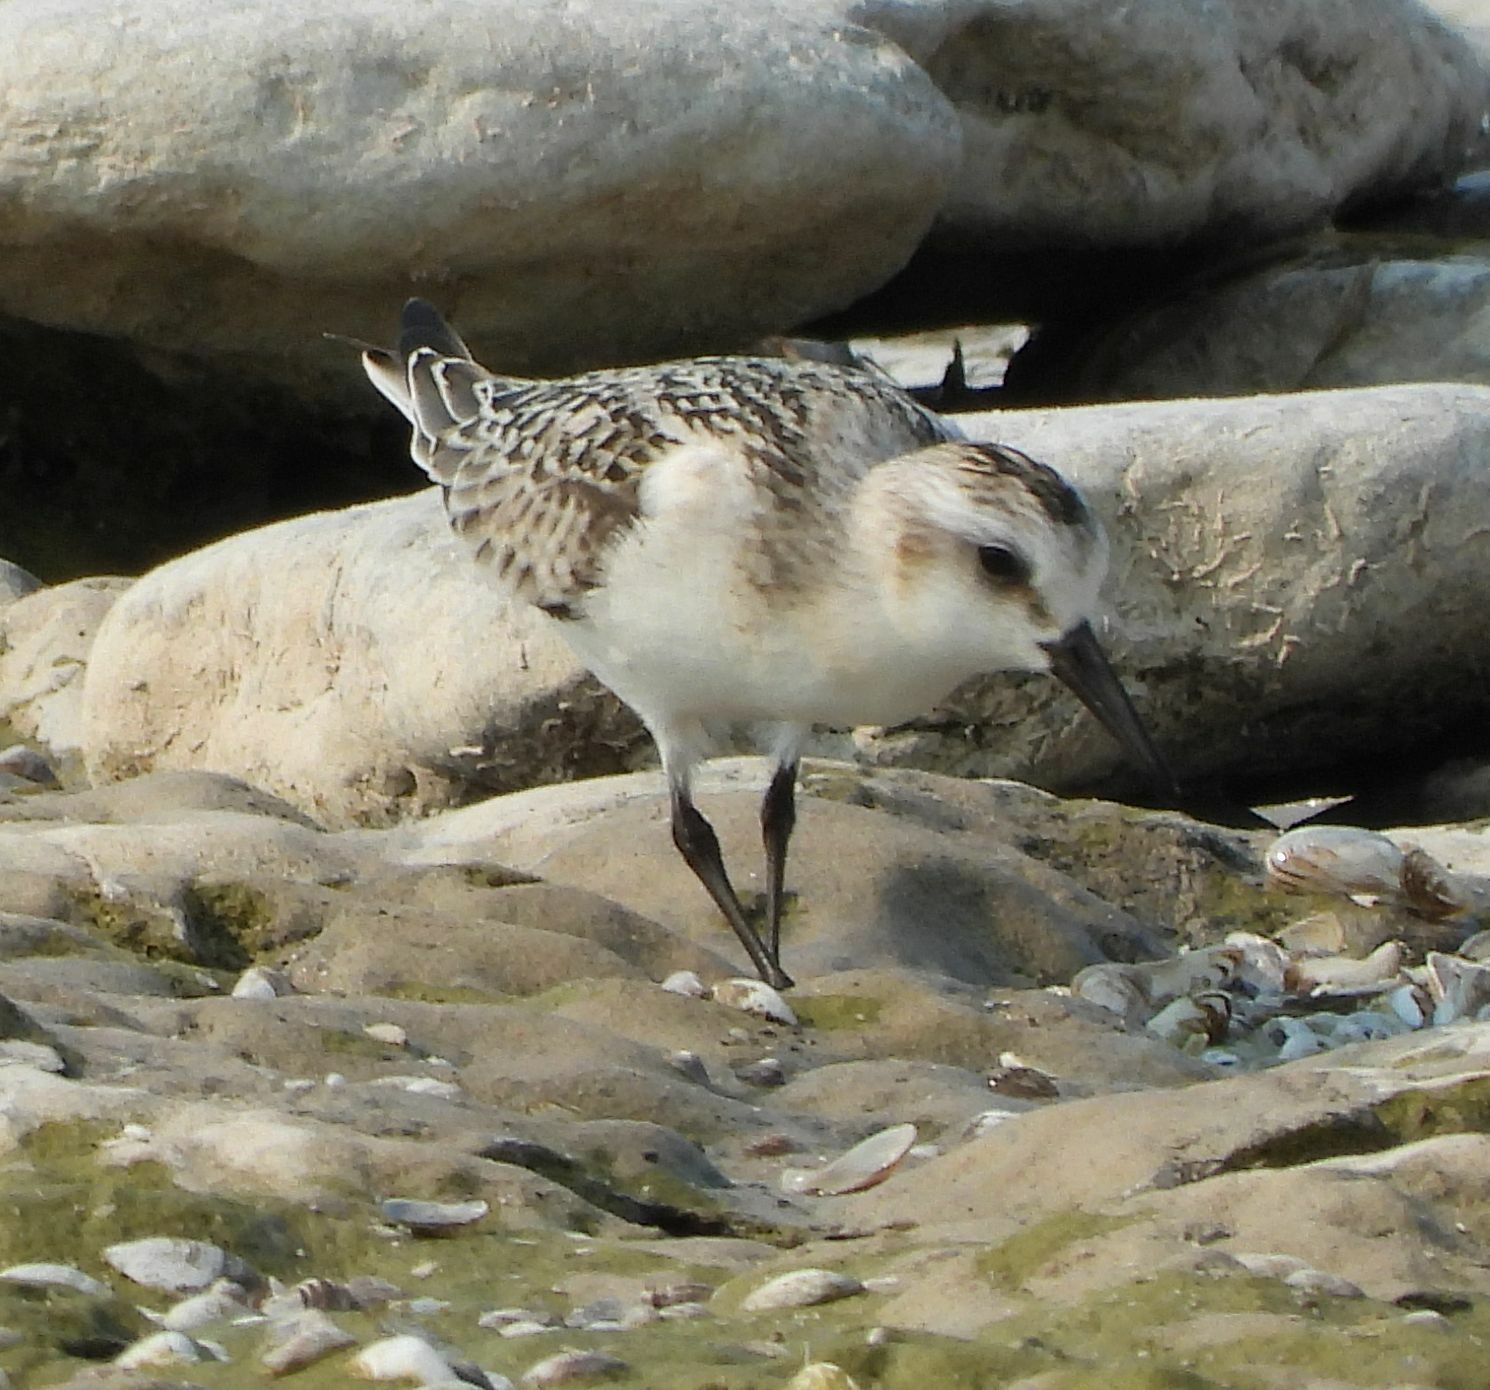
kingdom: Animalia
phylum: Chordata
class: Aves
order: Charadriiformes
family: Scolopacidae
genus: Calidris
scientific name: Calidris alba
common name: Sanderling
